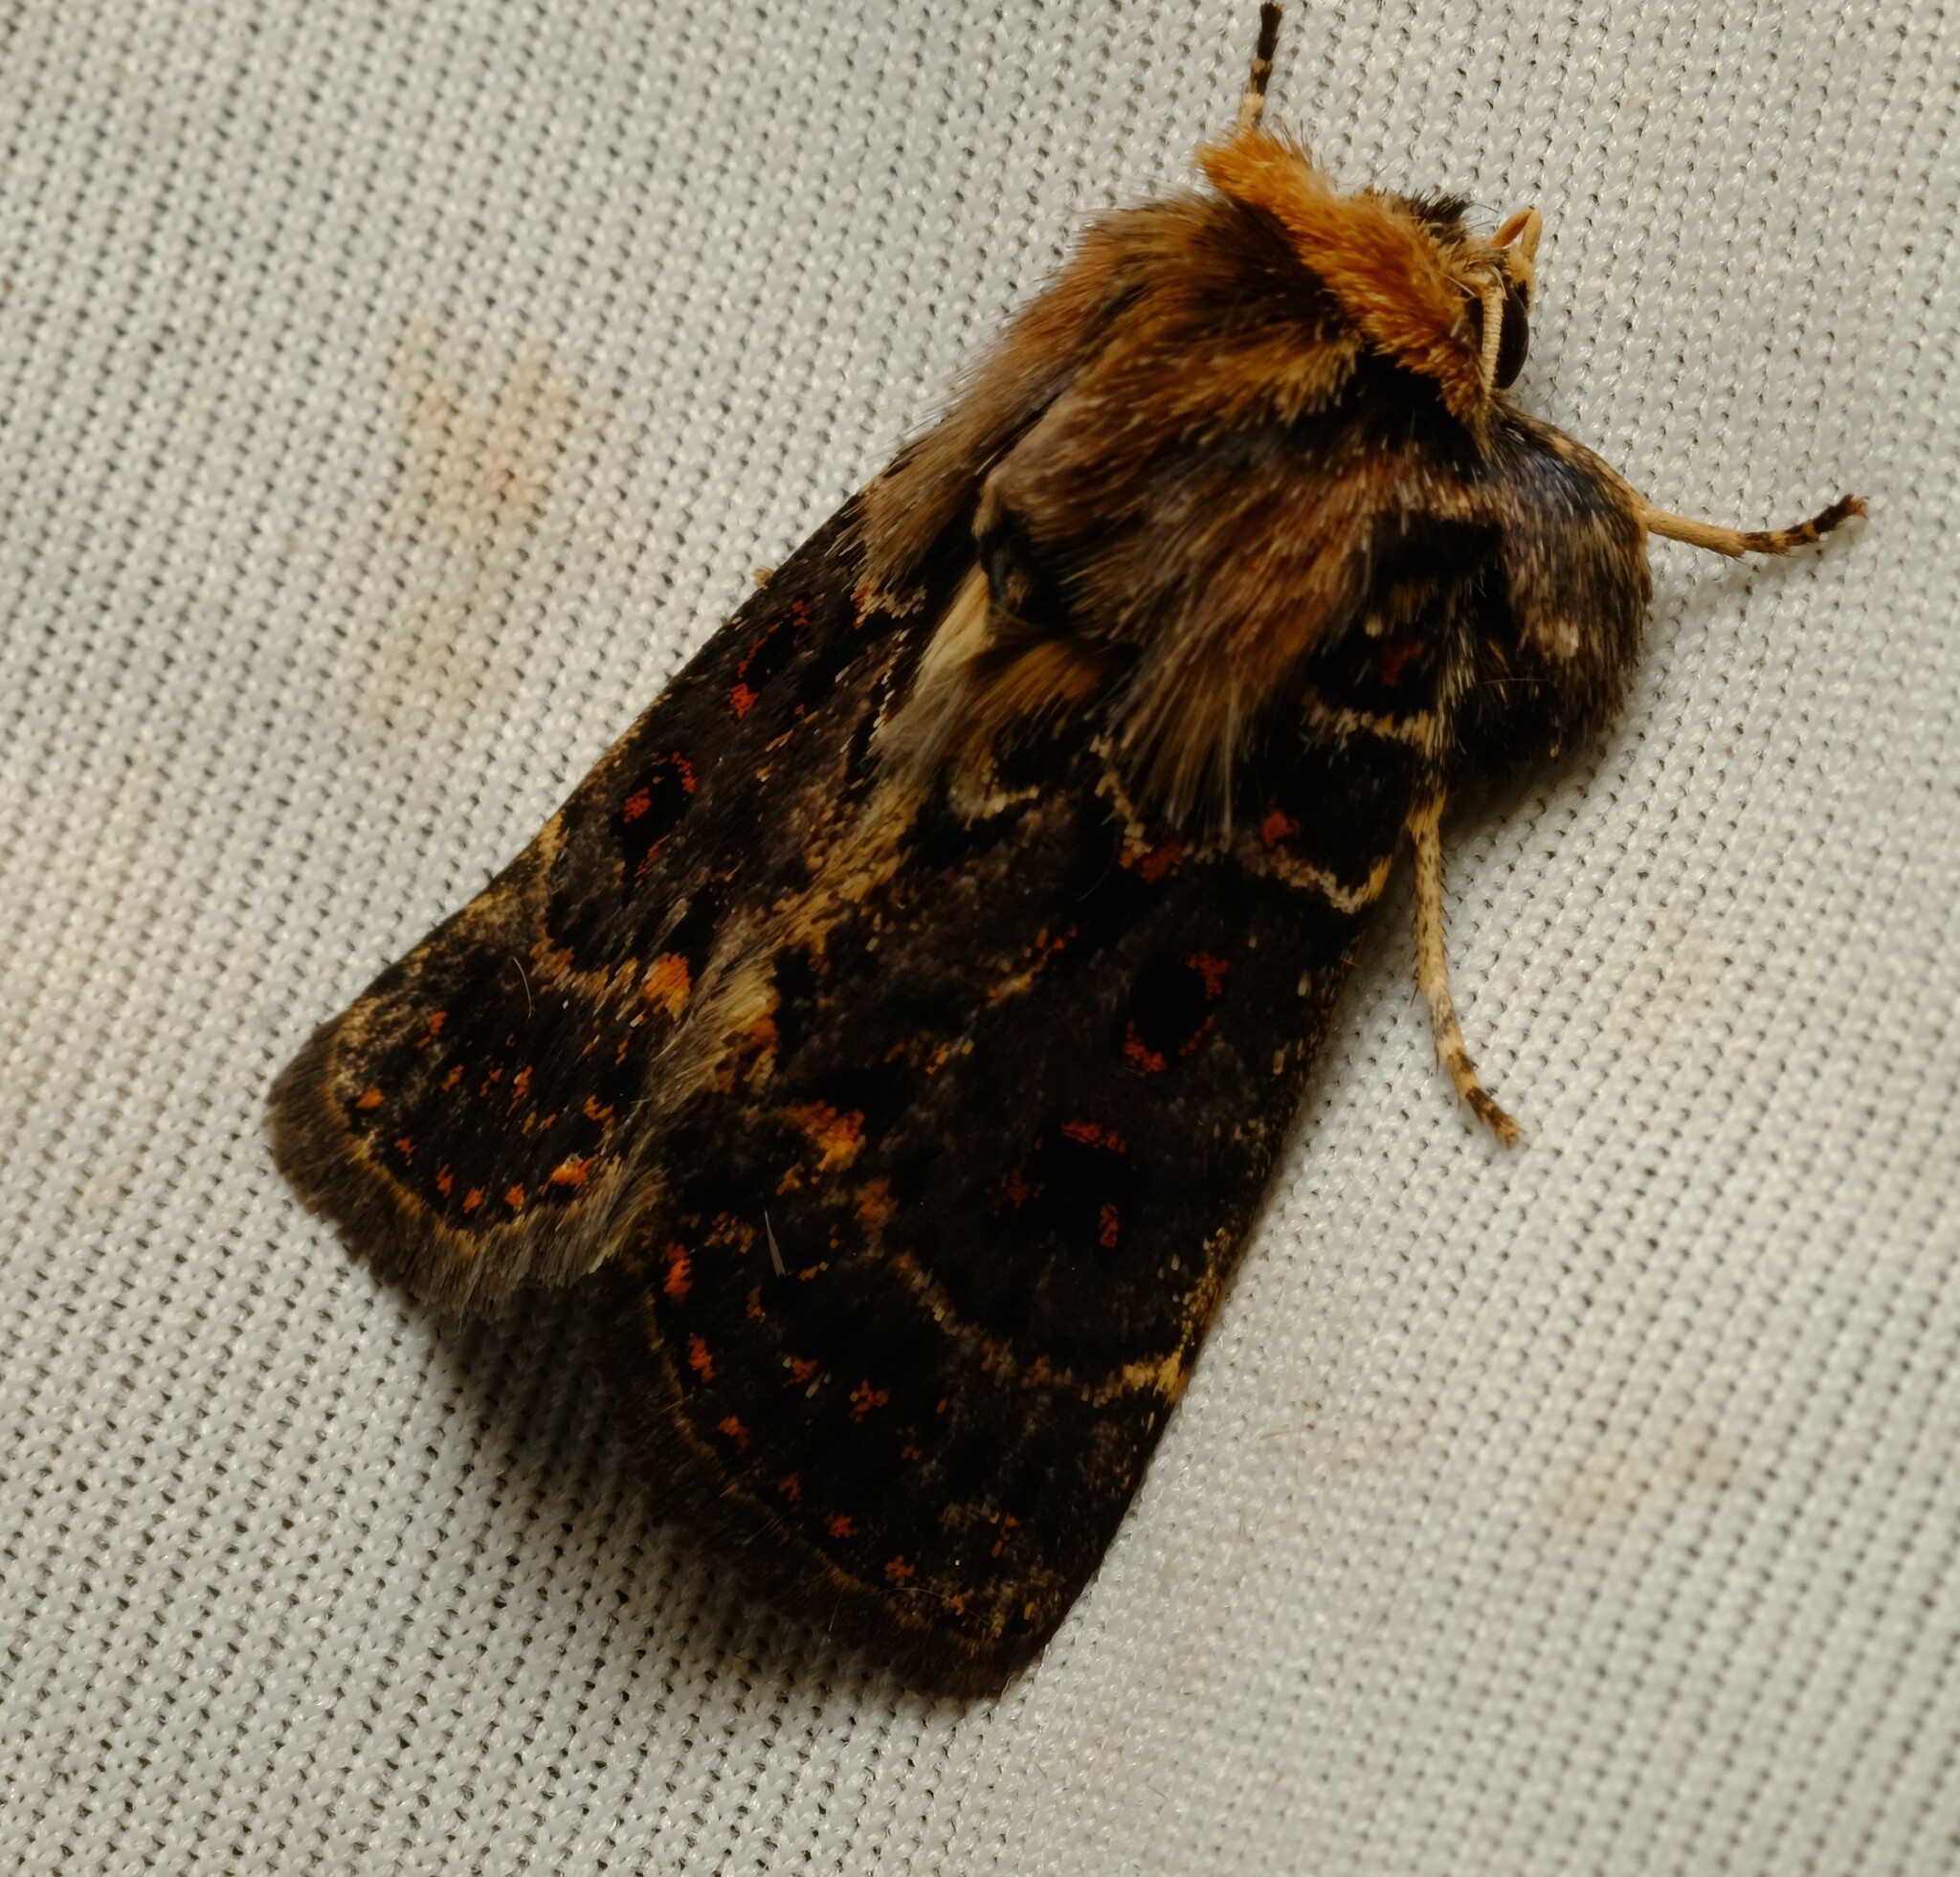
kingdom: Animalia
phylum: Arthropoda
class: Insecta
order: Lepidoptera
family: Noctuidae
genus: Proteuxoa
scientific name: Proteuxoa sanguinipuncta
